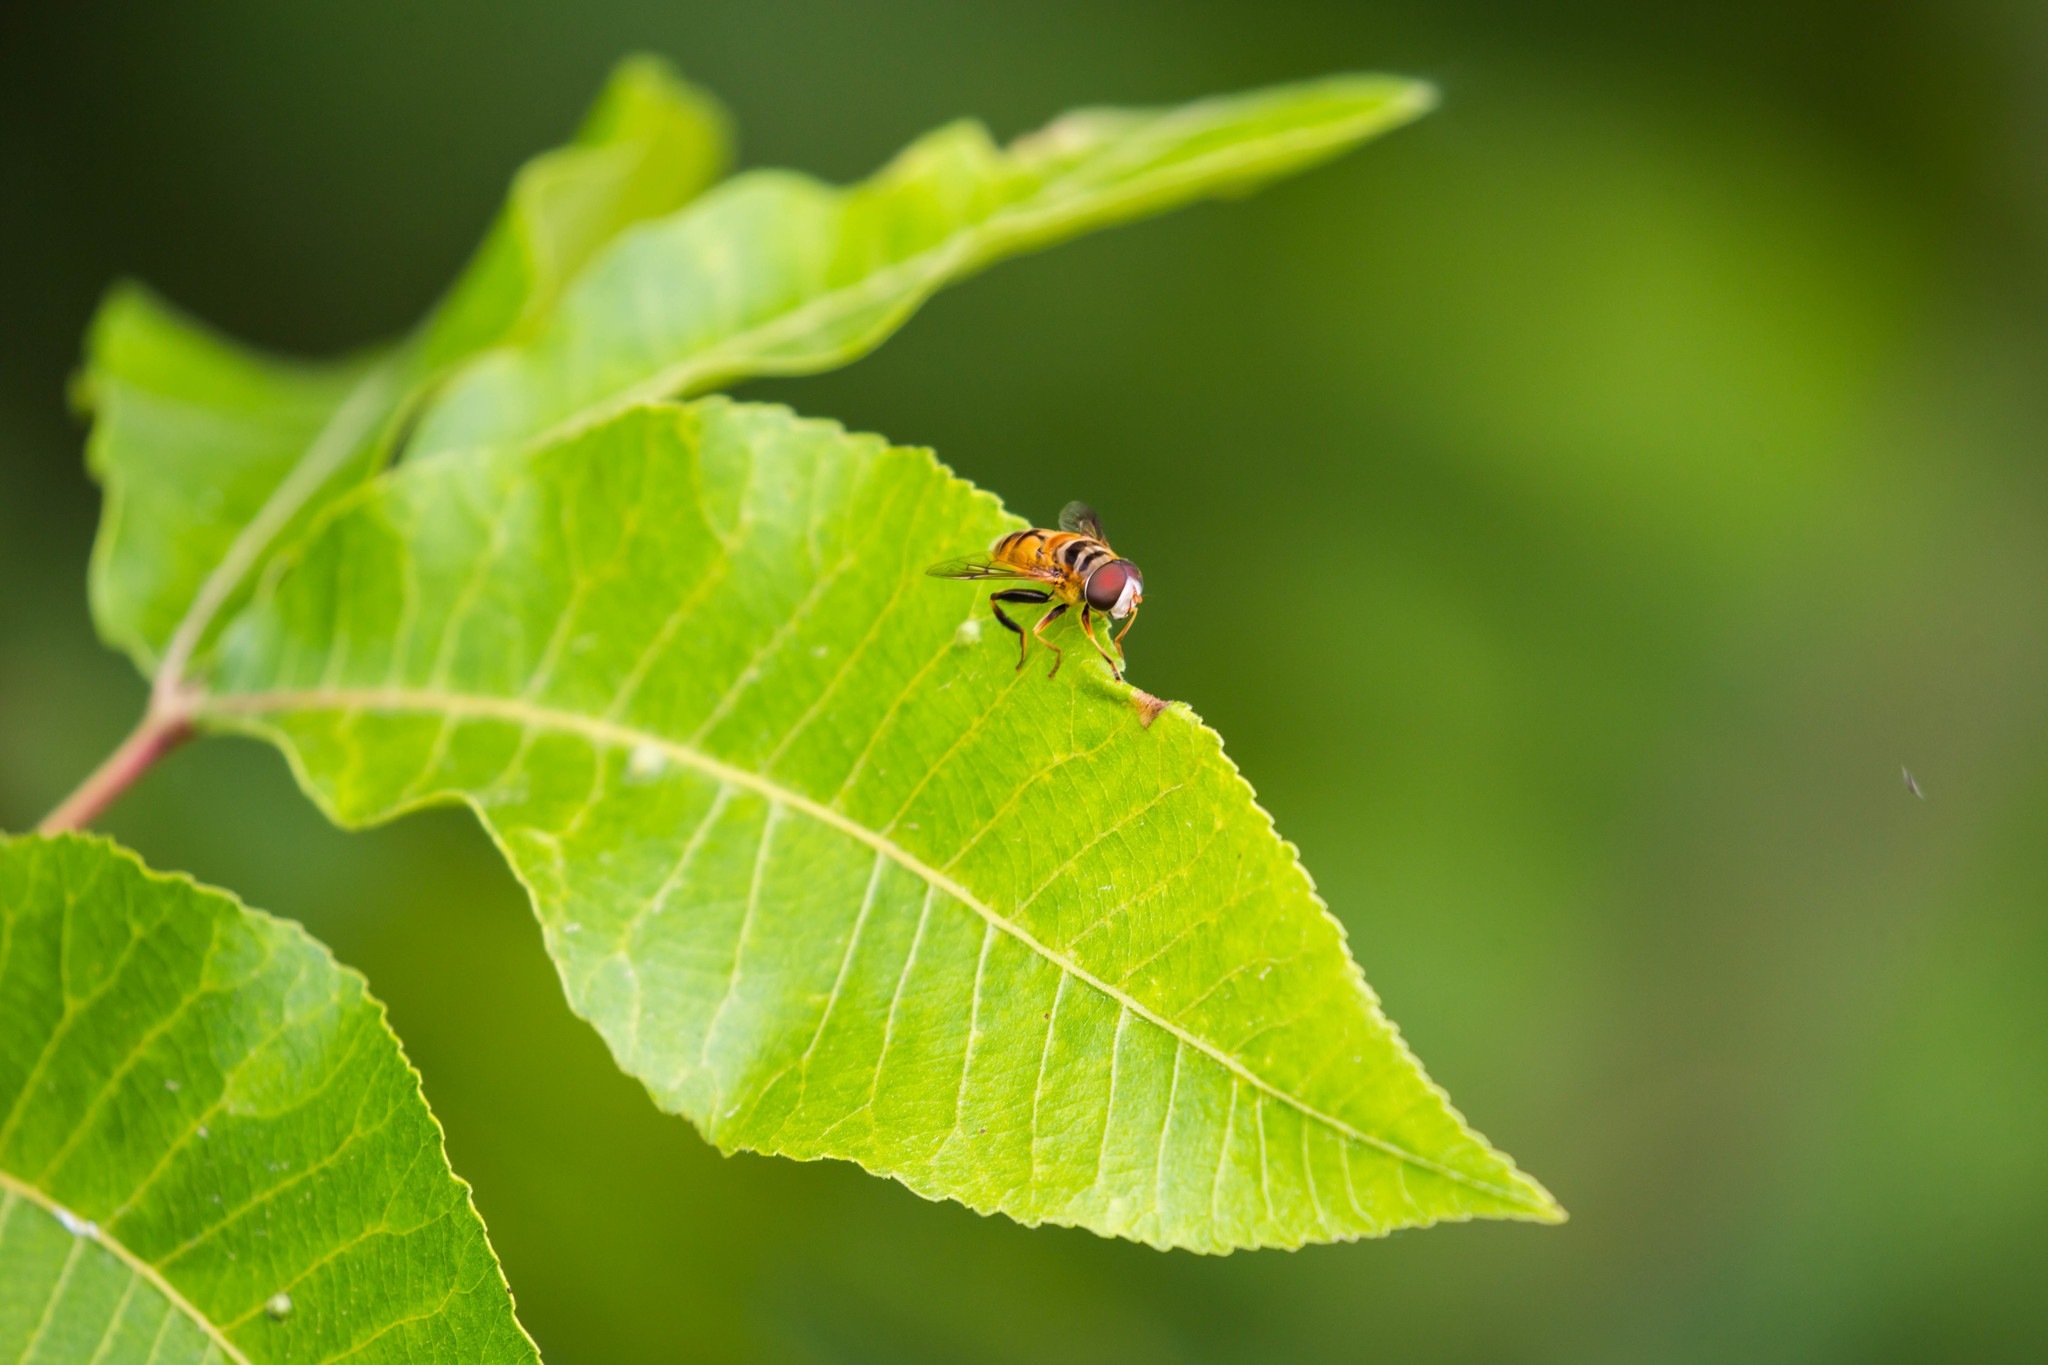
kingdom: Animalia
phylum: Arthropoda
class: Insecta
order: Diptera
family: Syrphidae
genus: Palpada
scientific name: Palpada vinetorum
